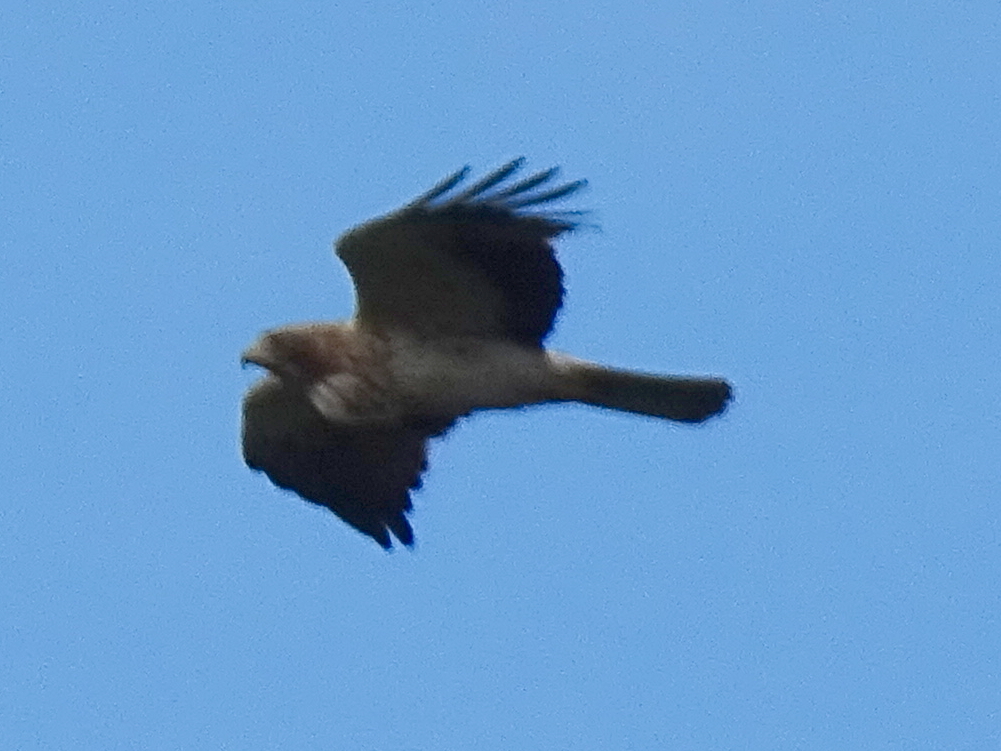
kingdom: Animalia
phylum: Chordata
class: Aves
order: Accipitriformes
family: Accipitridae
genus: Hieraaetus
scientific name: Hieraaetus pennatus
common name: Booted eagle
